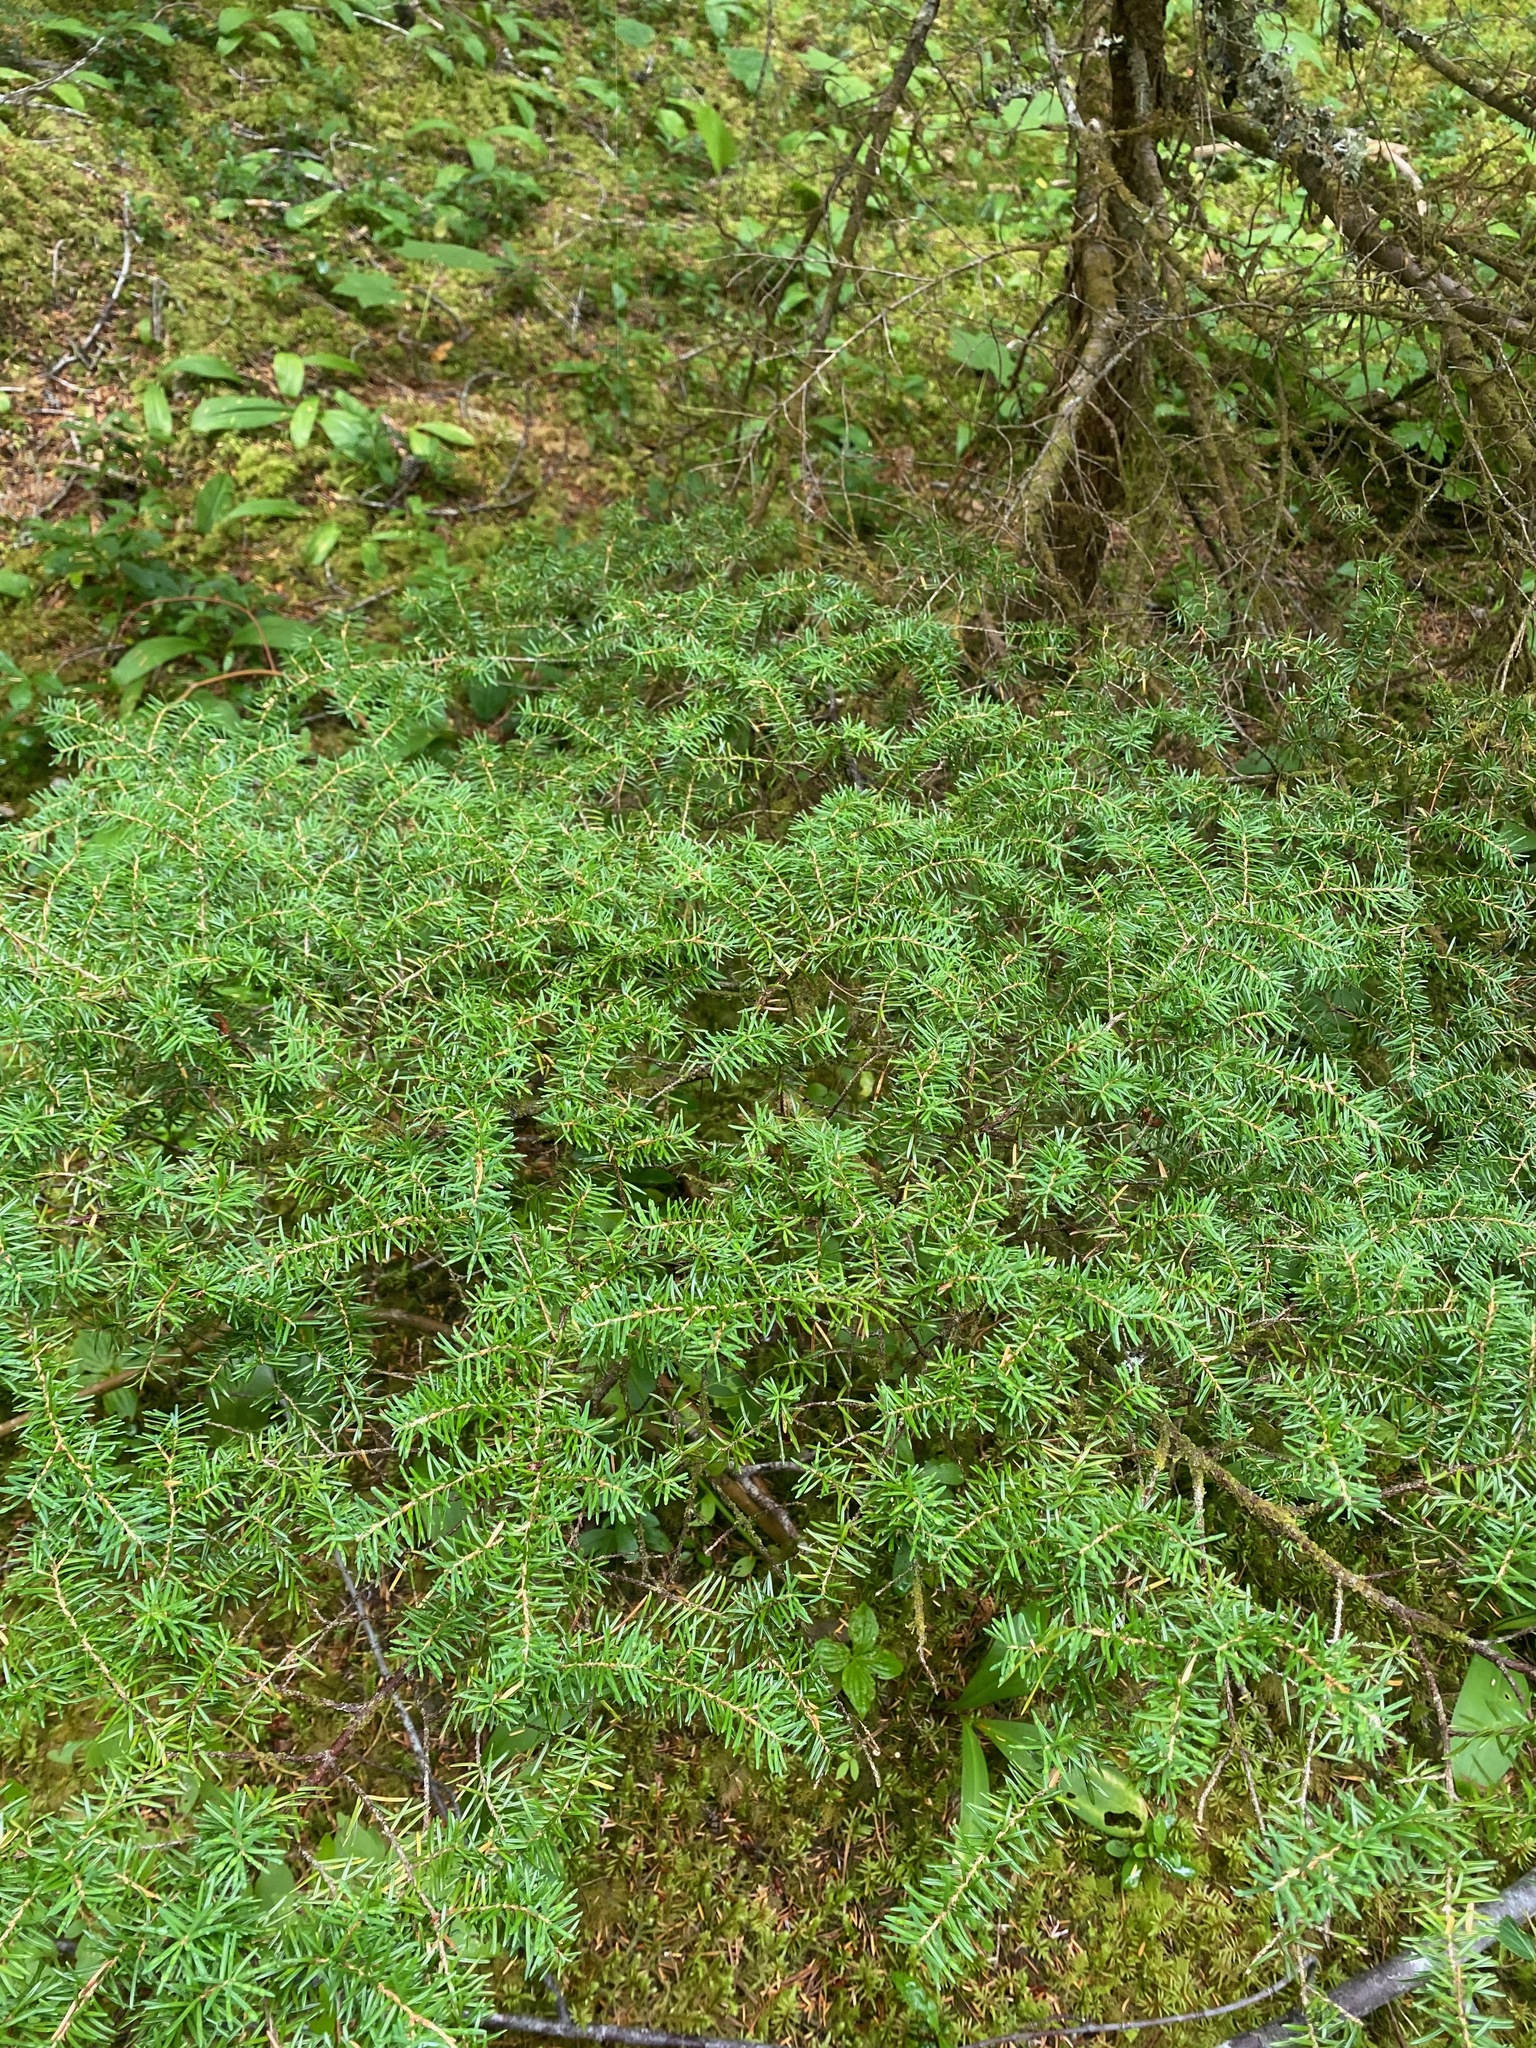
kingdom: Plantae
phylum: Tracheophyta
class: Pinopsida
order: Pinales
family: Pinaceae
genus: Tsuga
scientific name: Tsuga heterophylla
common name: Western hemlock
